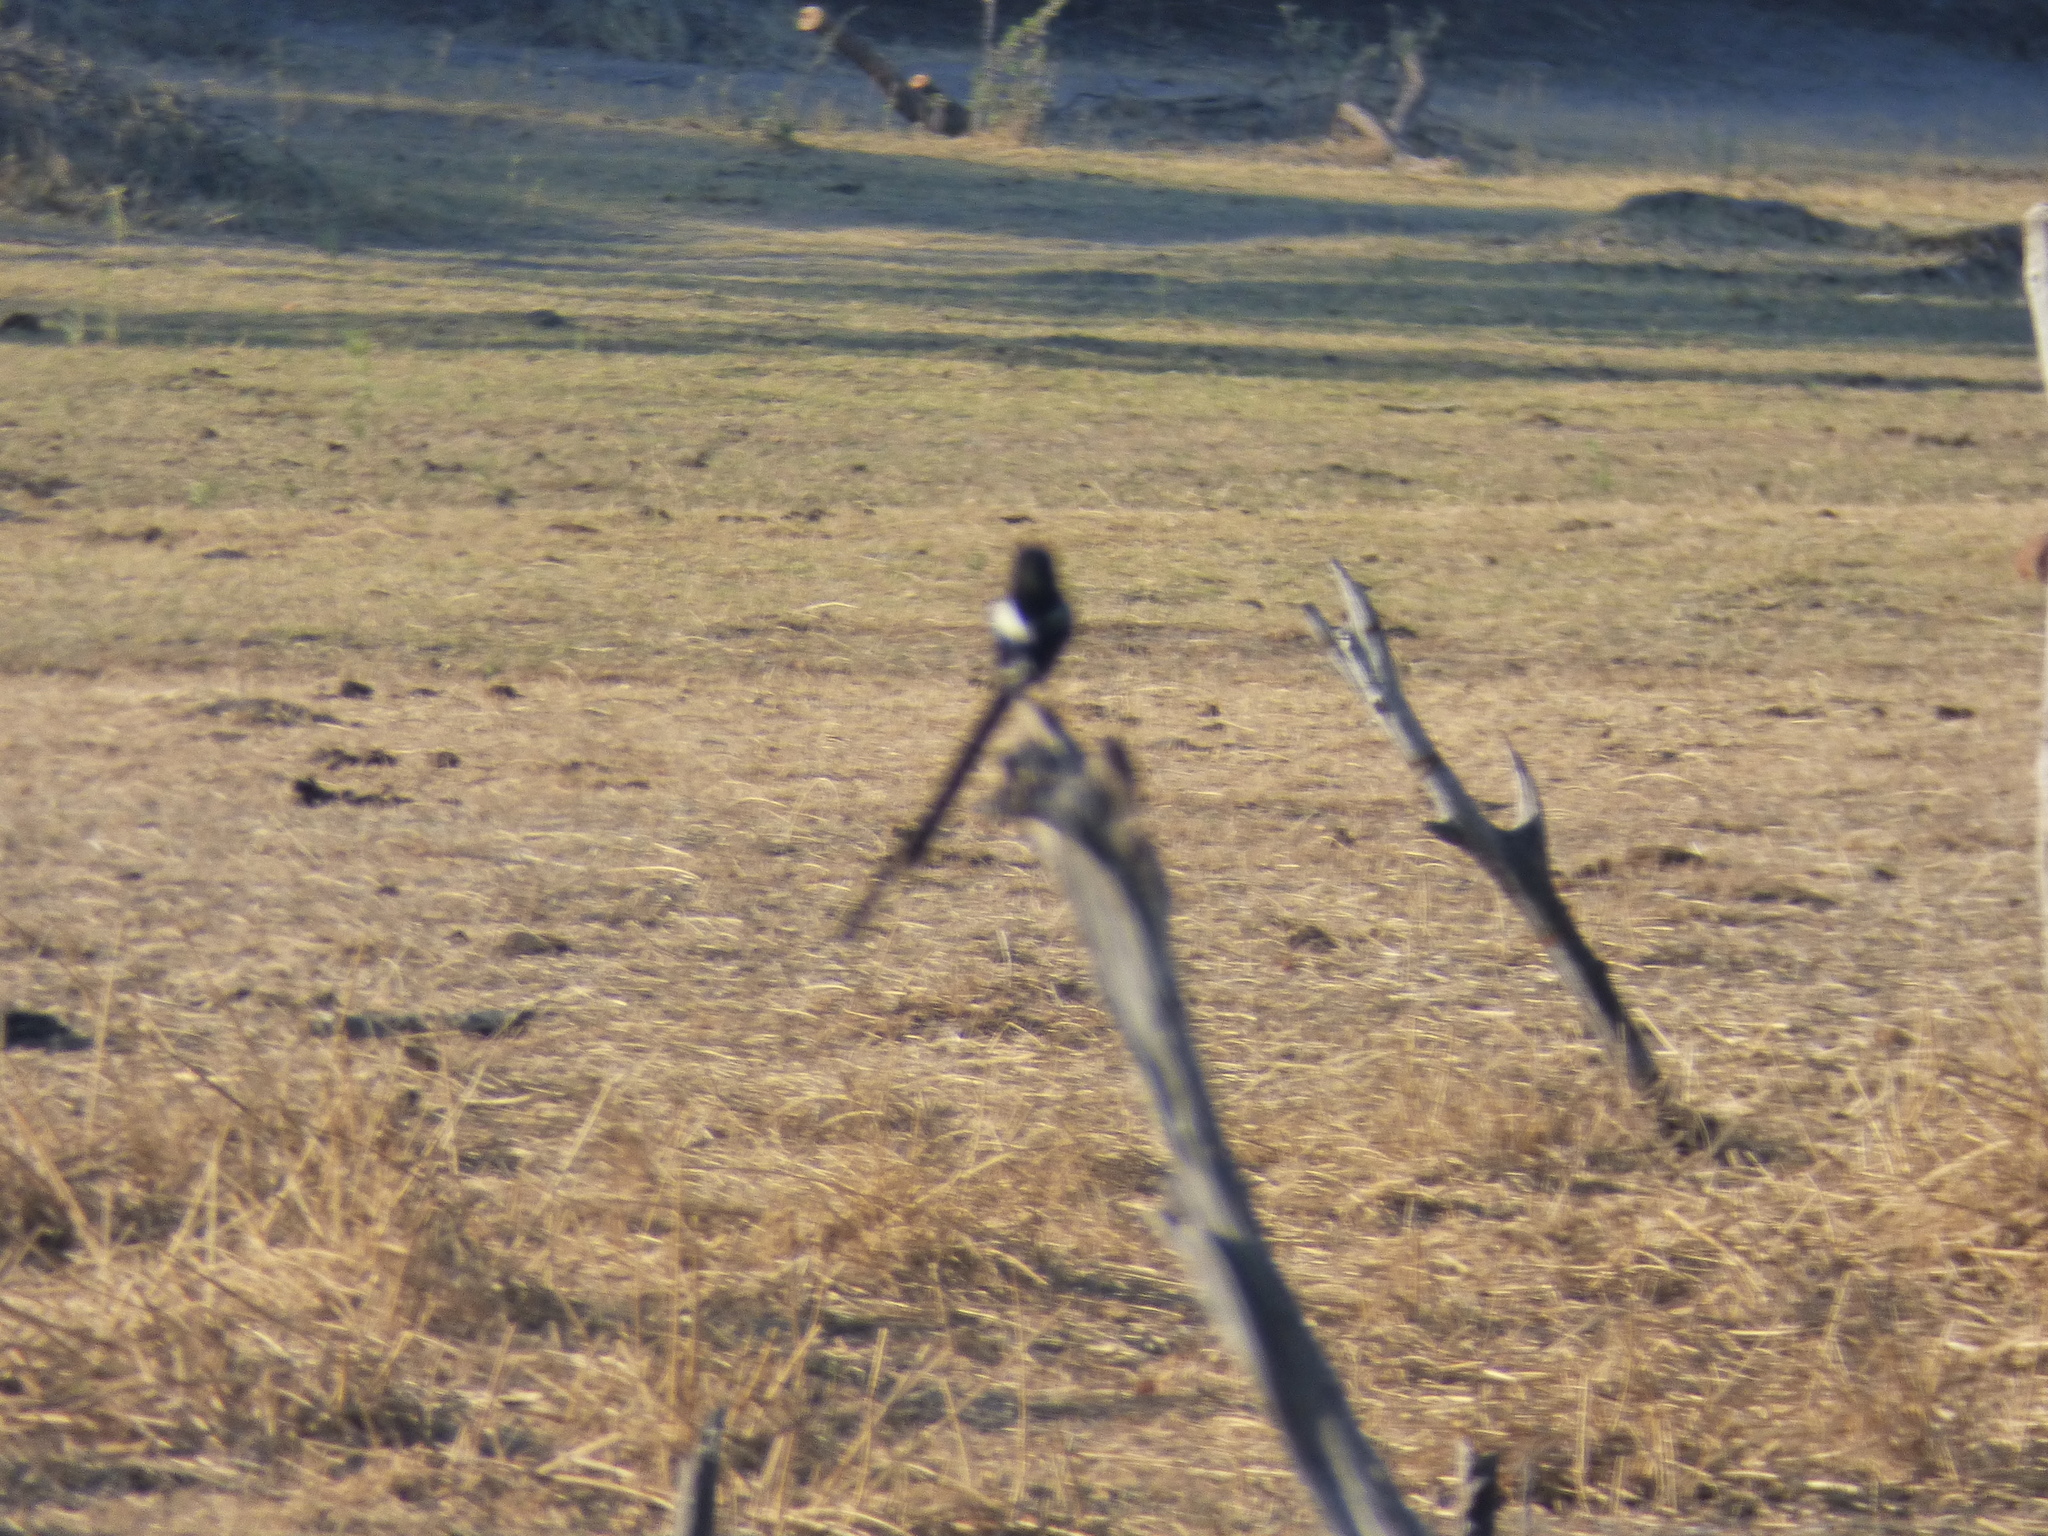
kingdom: Animalia
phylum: Chordata
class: Aves
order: Passeriformes
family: Laniidae
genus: Urolestes
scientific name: Urolestes melanoleucus
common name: Magpie shrike
